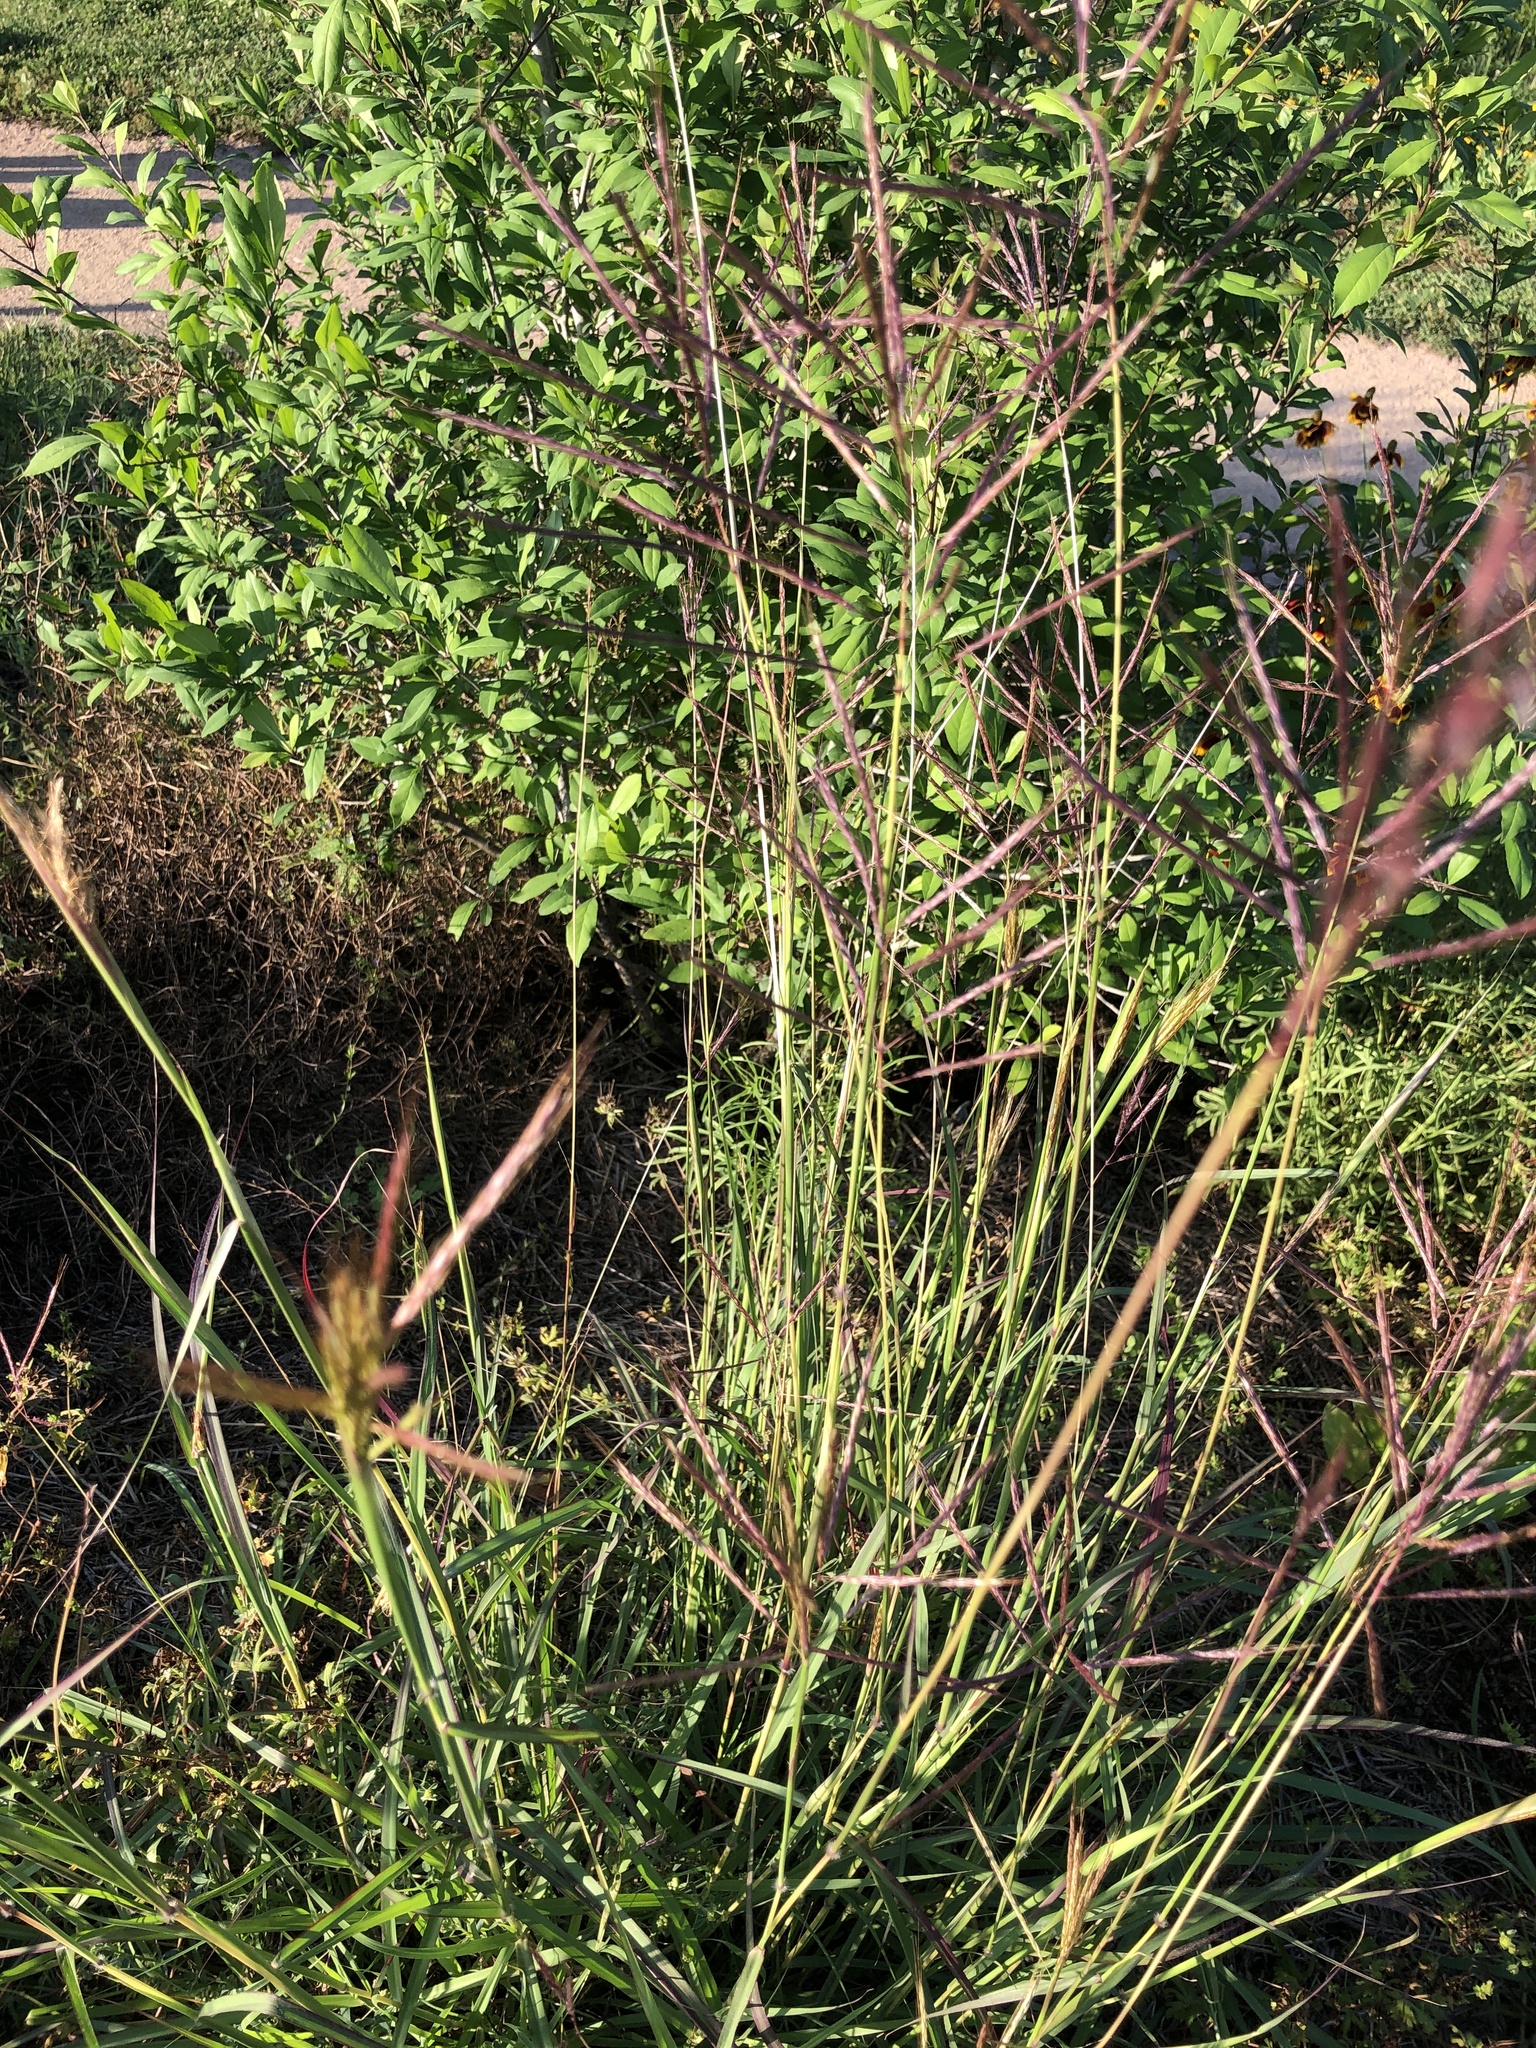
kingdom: Plantae
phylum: Tracheophyta
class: Liliopsida
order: Poales
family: Poaceae
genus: Bothriochloa
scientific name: Bothriochloa bladhii
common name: Caucasian bluestem
